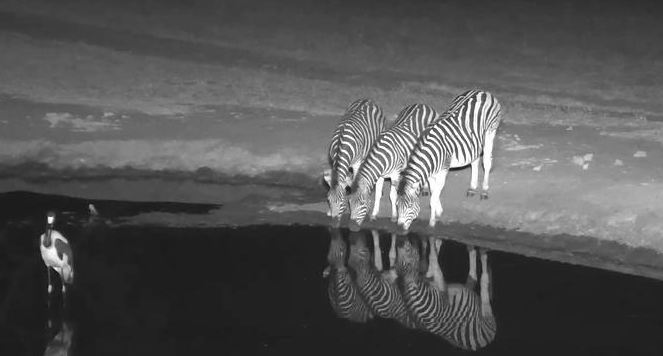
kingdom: Animalia
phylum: Chordata
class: Aves
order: Ciconiiformes
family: Ciconiidae
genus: Ephippiorhynchus
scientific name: Ephippiorhynchus senegalensis
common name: Saddle-billed stork
